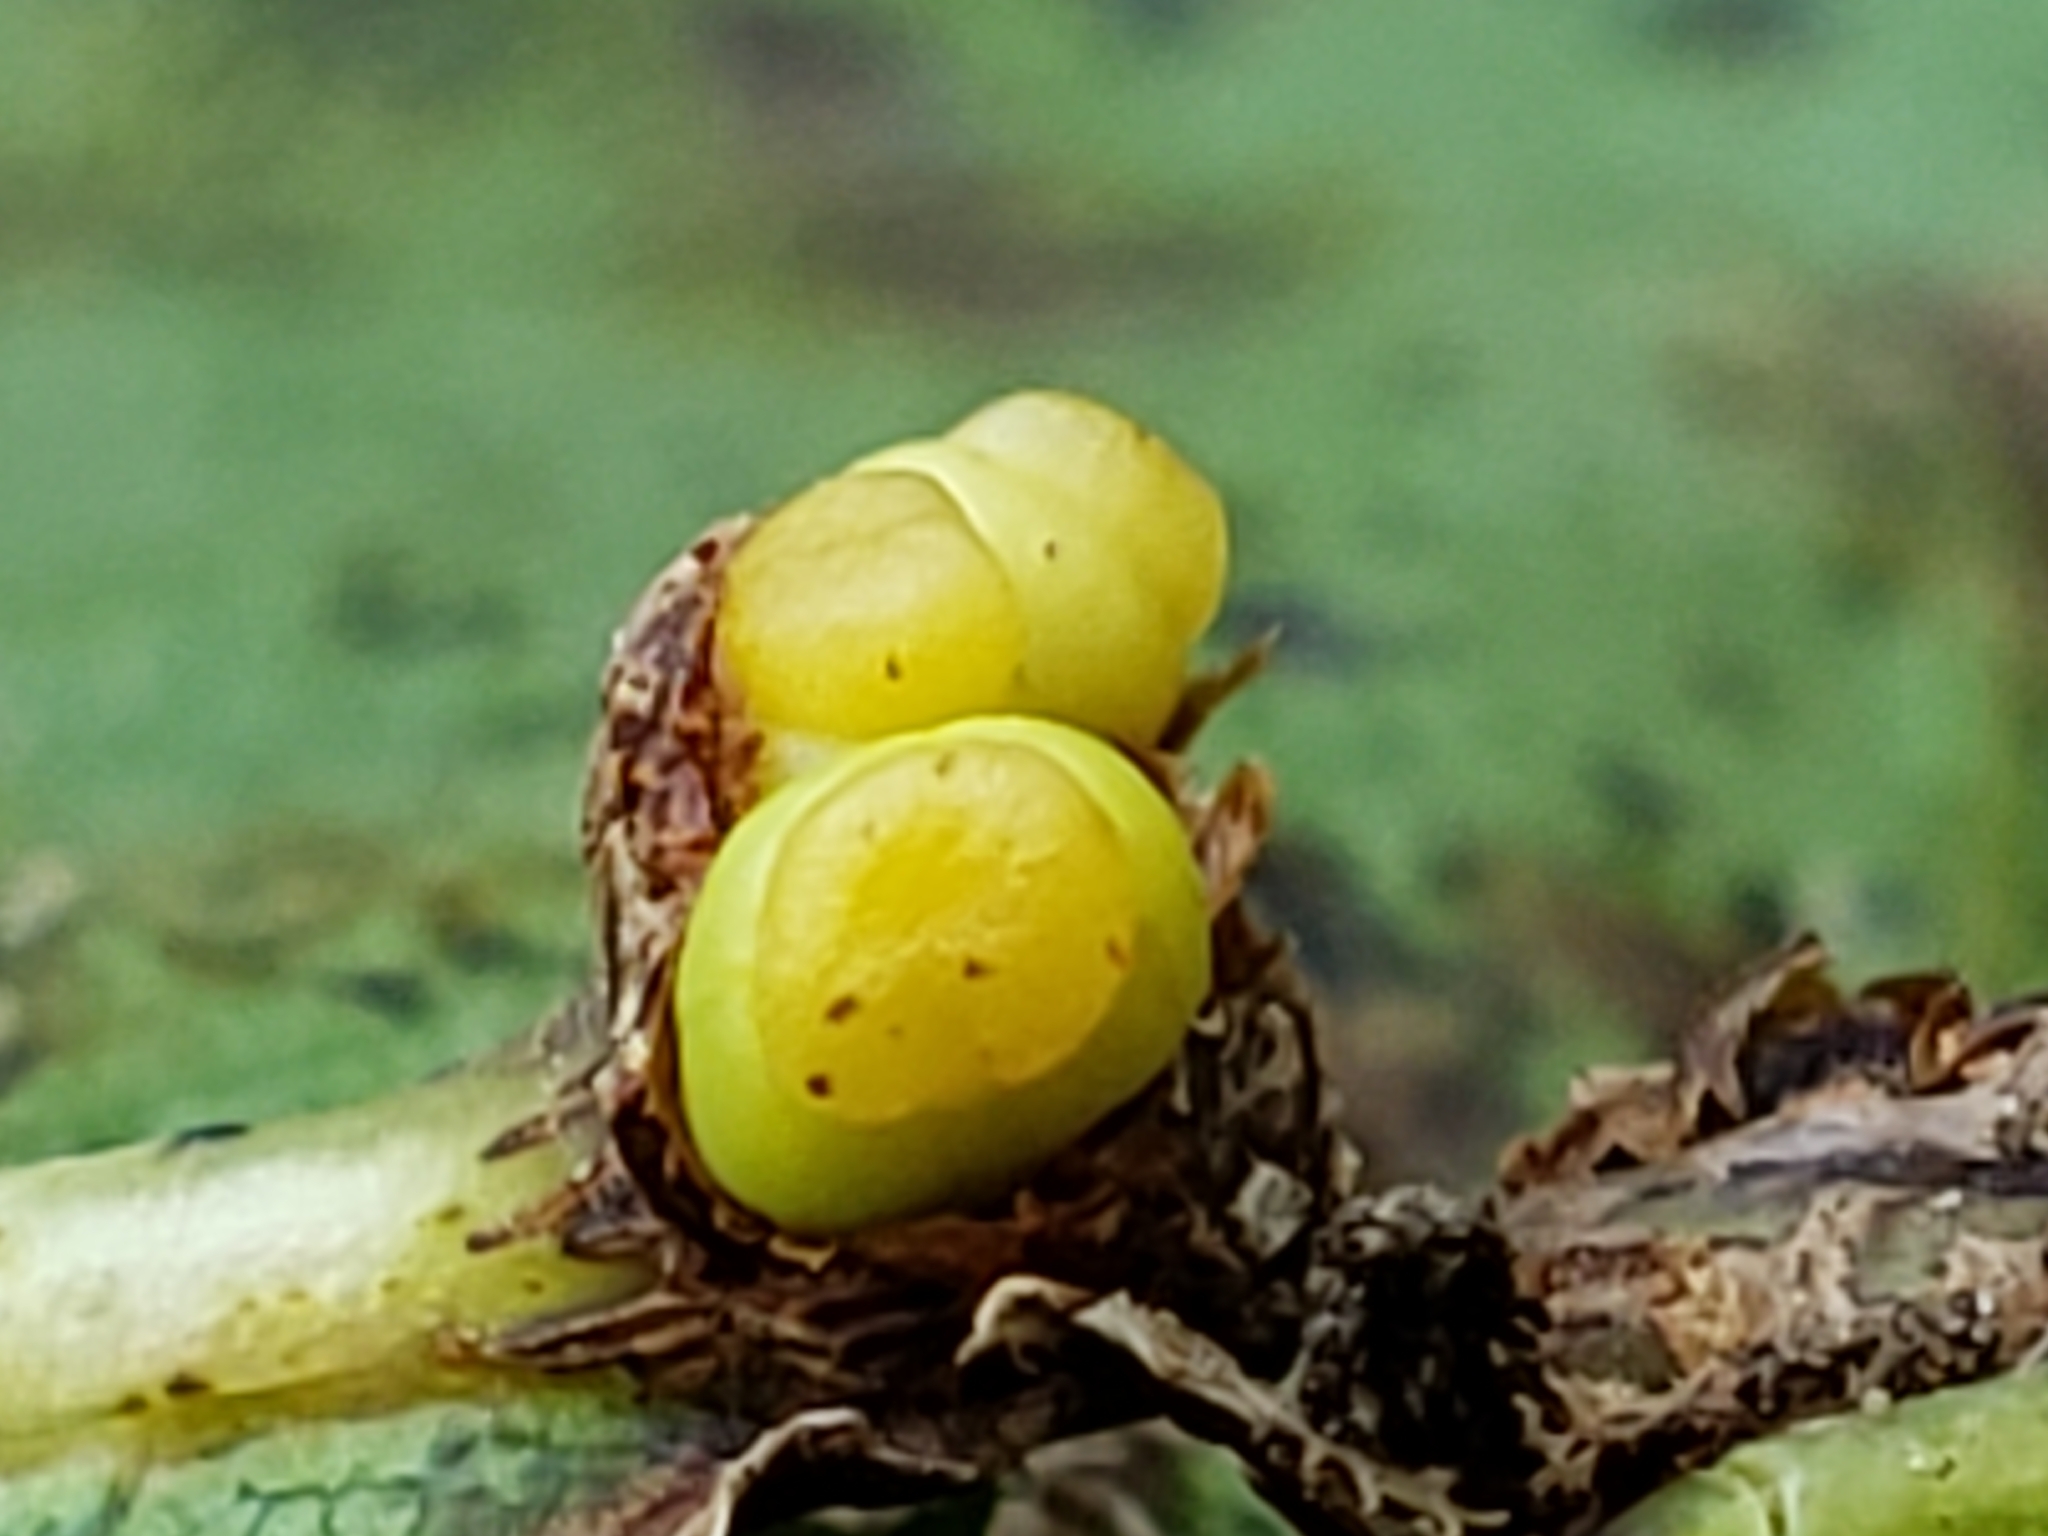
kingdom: Animalia
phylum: Arthropoda
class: Insecta
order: Hymenoptera
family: Cynipidae
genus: Kokkocynips
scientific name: Kokkocynips decidua
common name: Oak wheat gall
